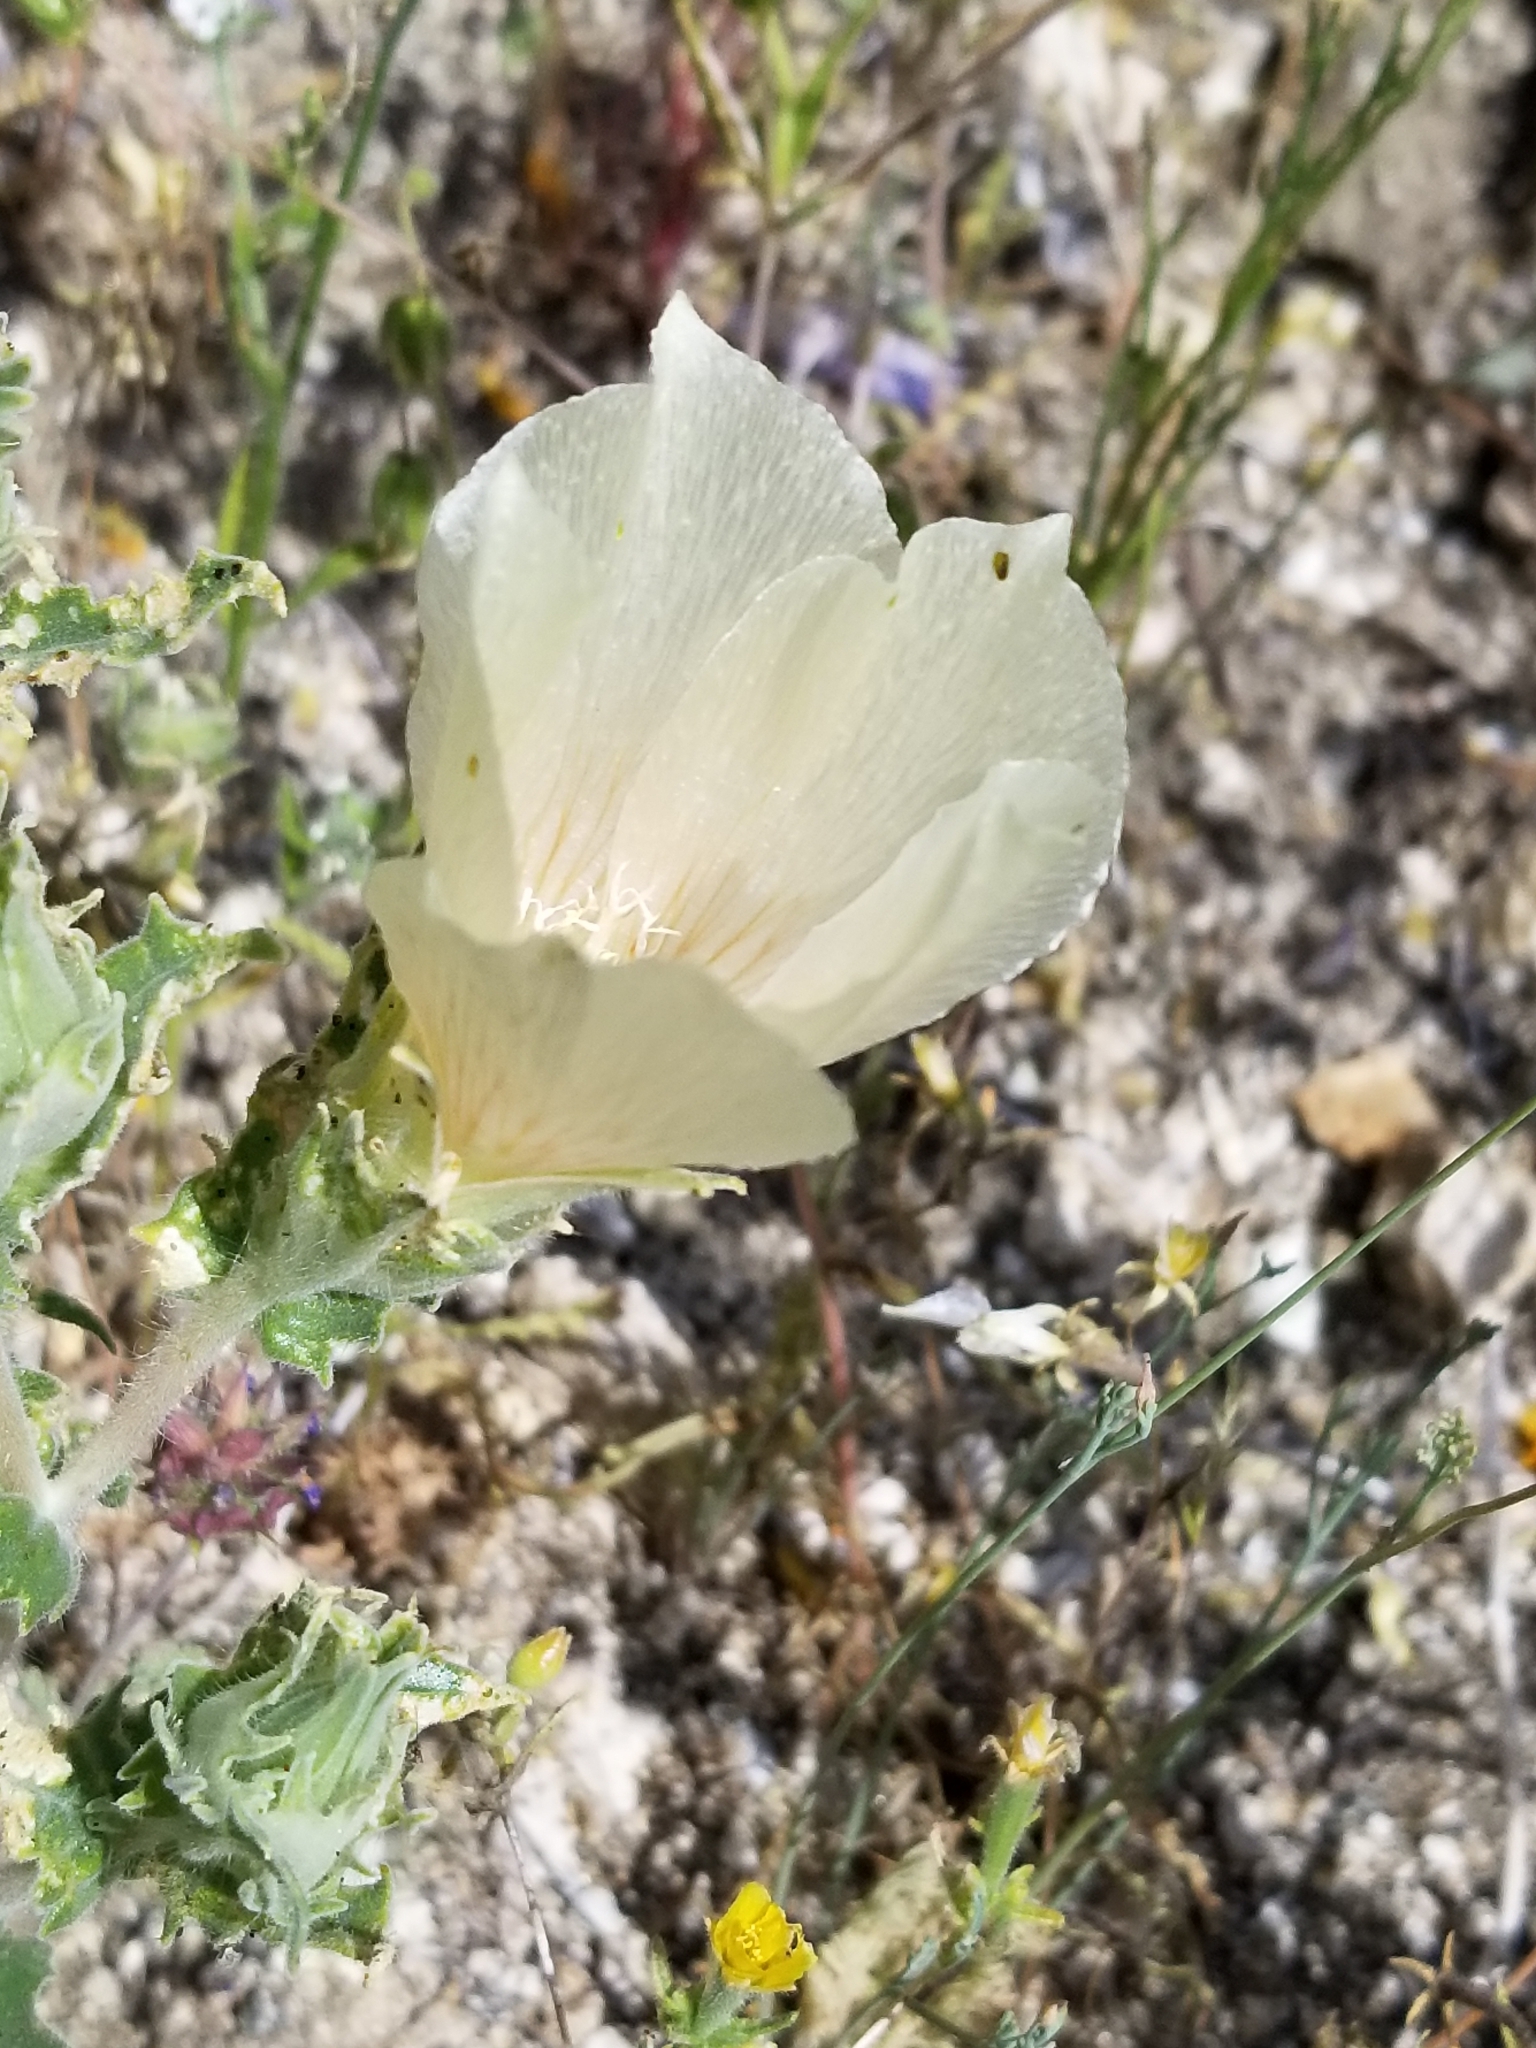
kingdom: Plantae
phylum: Tracheophyta
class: Magnoliopsida
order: Cornales
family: Loasaceae
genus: Mentzelia
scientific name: Mentzelia involucrata
